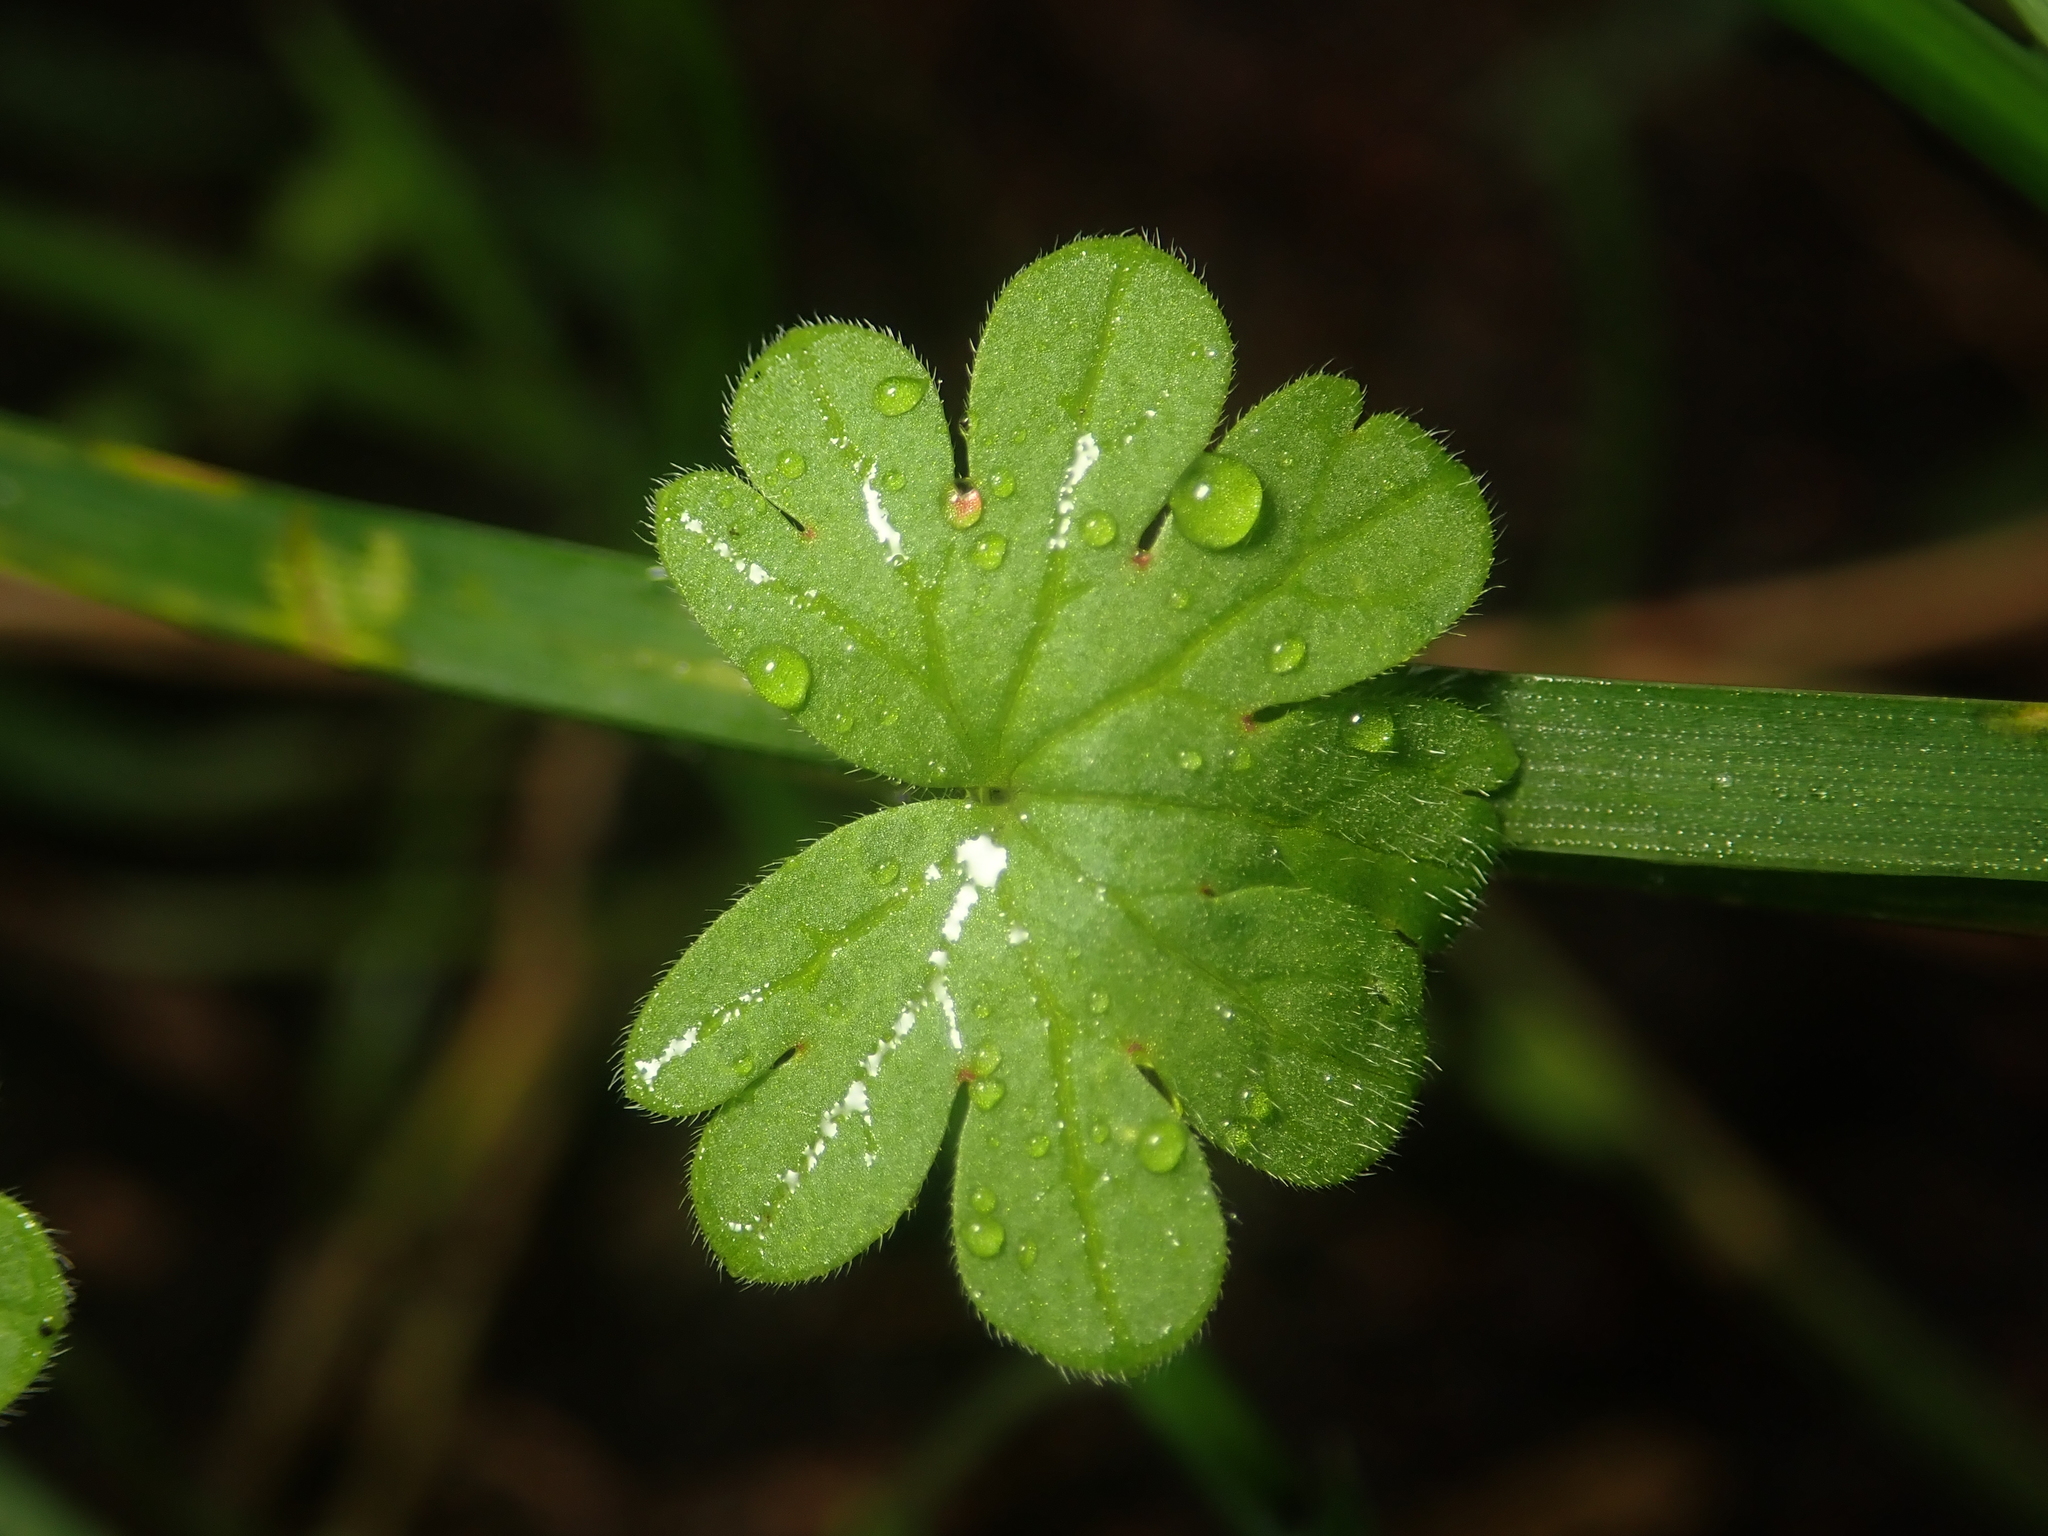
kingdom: Plantae
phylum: Tracheophyta
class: Magnoliopsida
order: Geraniales
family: Geraniaceae
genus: Geranium
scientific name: Geranium molle
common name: Dove's-foot crane's-bill
